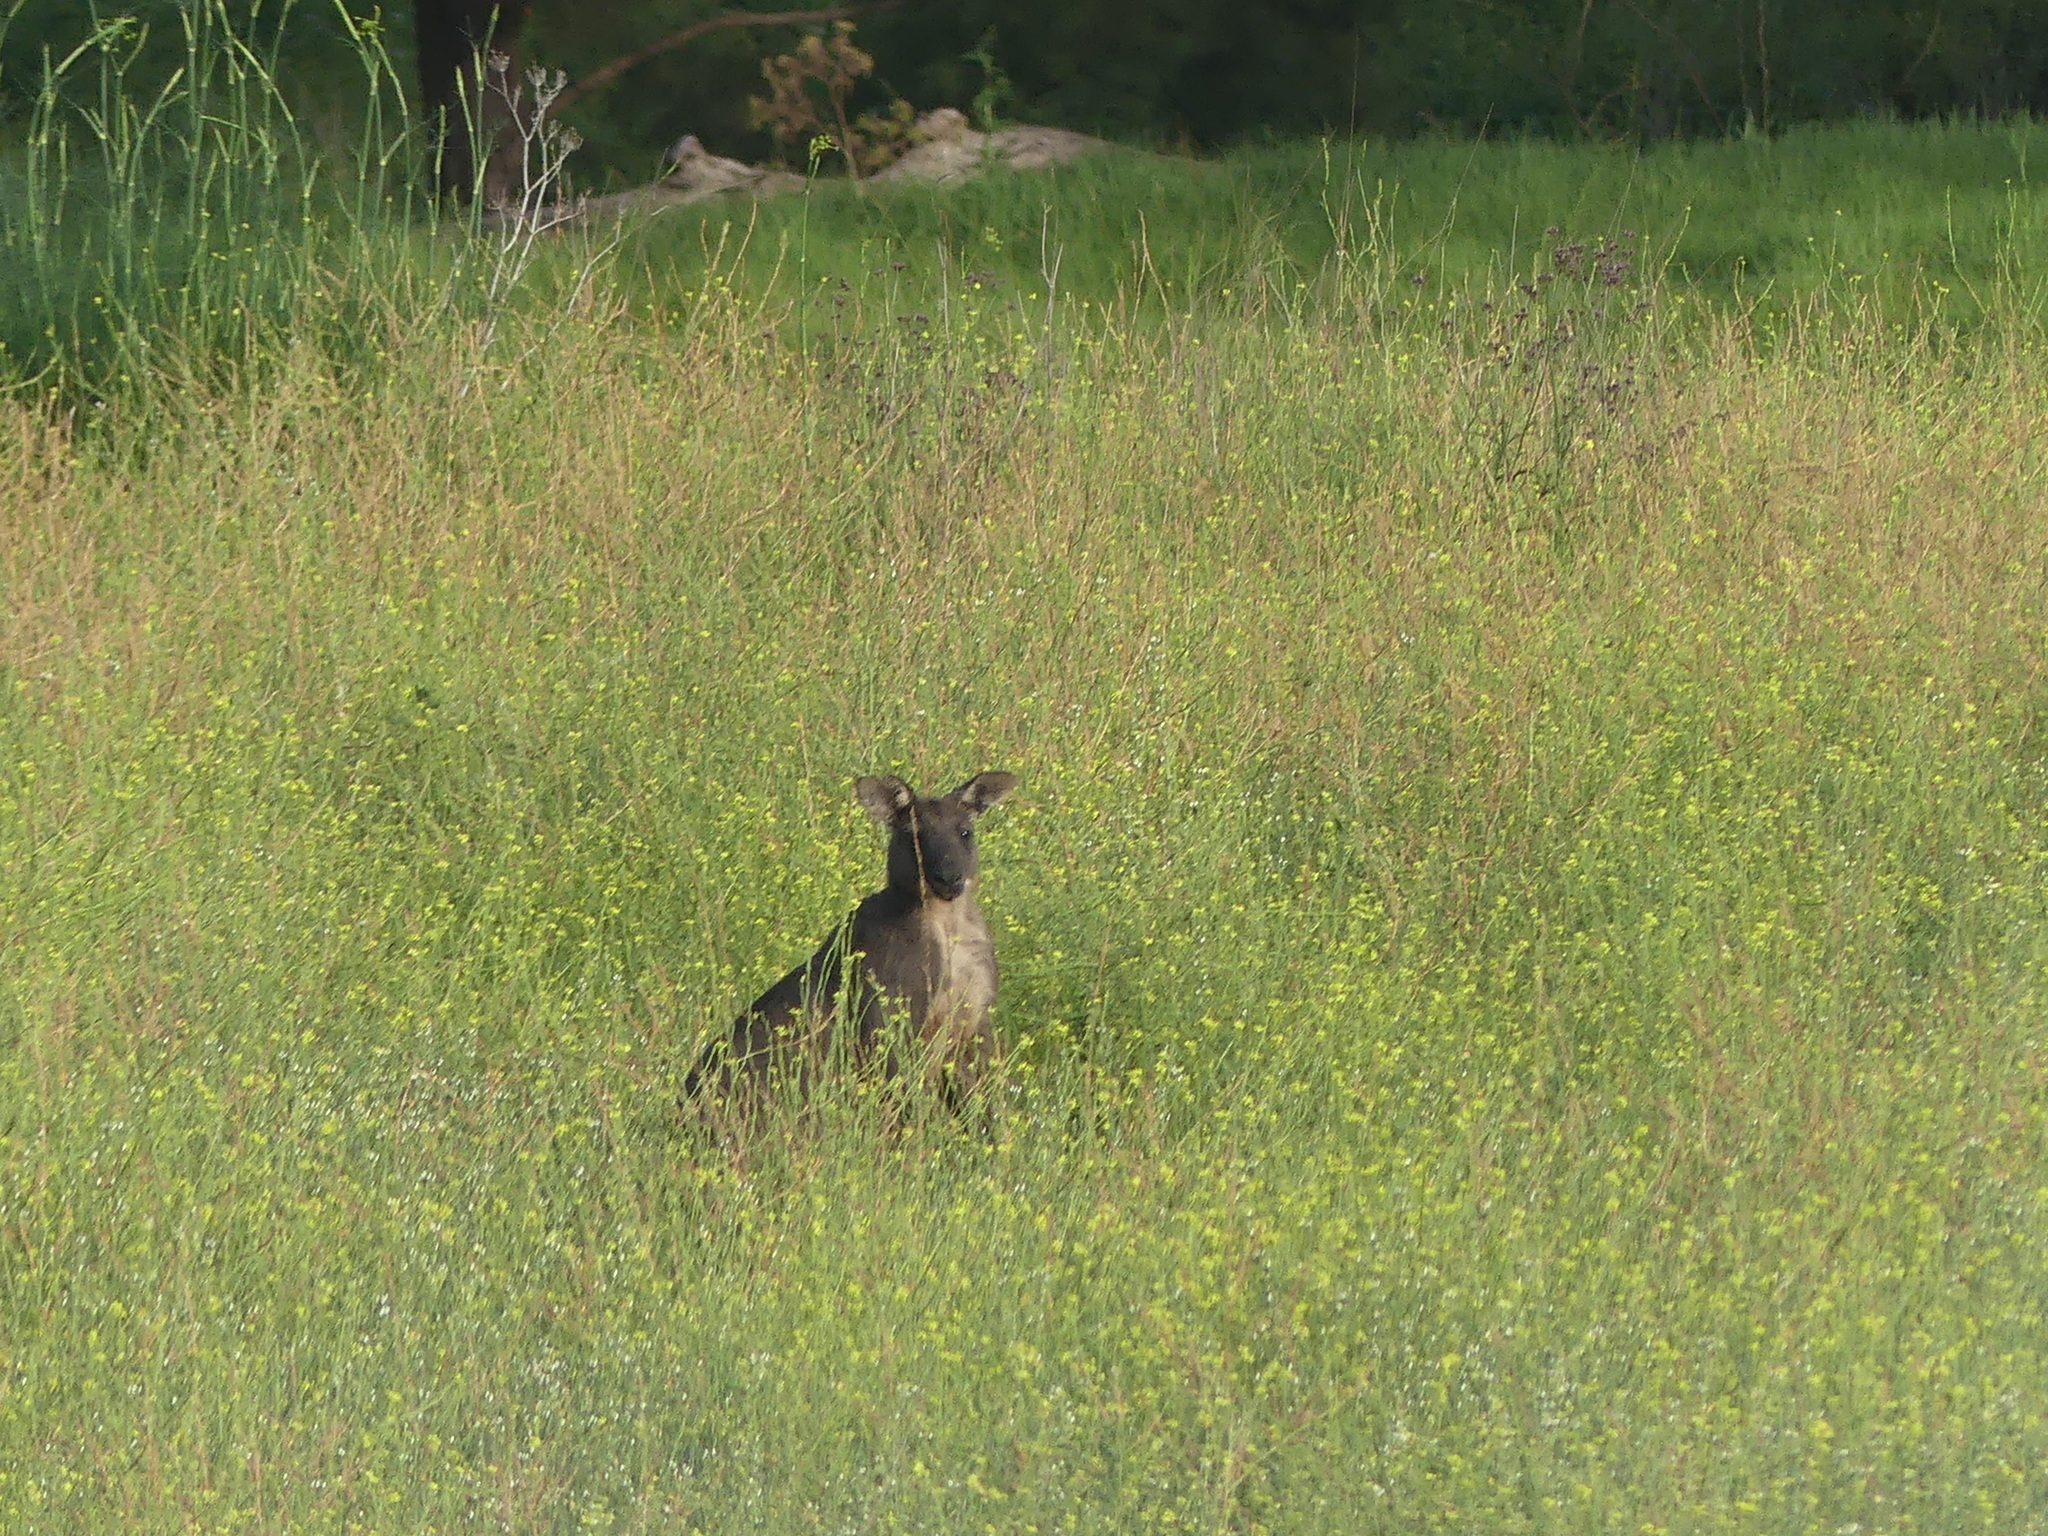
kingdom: Animalia
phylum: Chordata
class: Mammalia
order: Diprotodontia
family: Macropodidae
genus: Macropus
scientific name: Macropus robustus
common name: Eastern wallaroo
